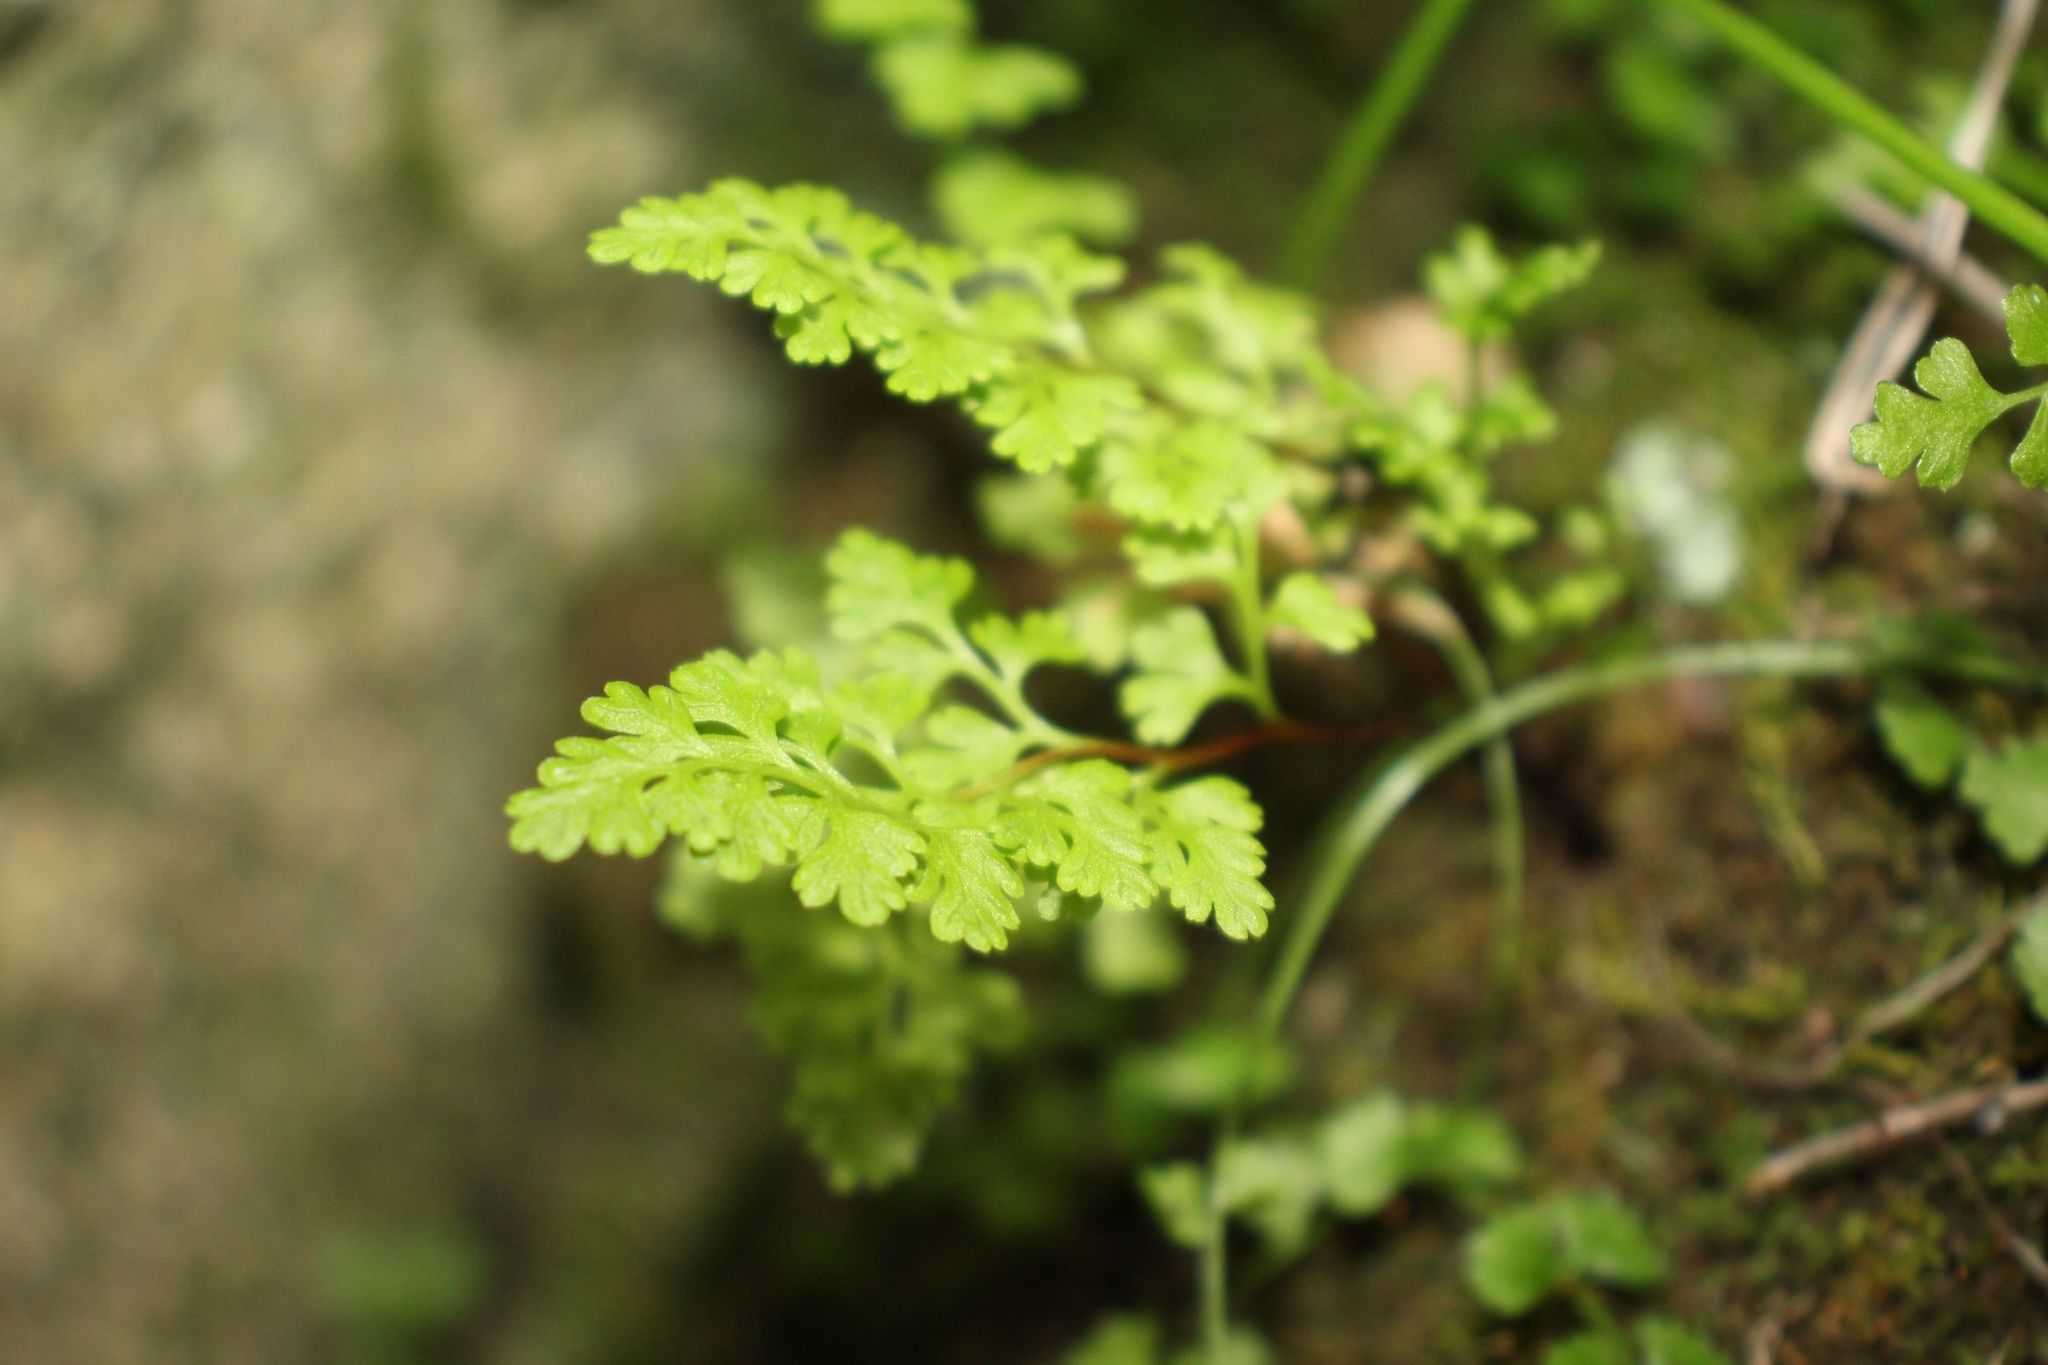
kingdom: Plantae
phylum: Tracheophyta
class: Polypodiopsida
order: Polypodiales
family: Pteridaceae
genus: Anogramma
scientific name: Anogramma leptophylla
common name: Jersey fern
